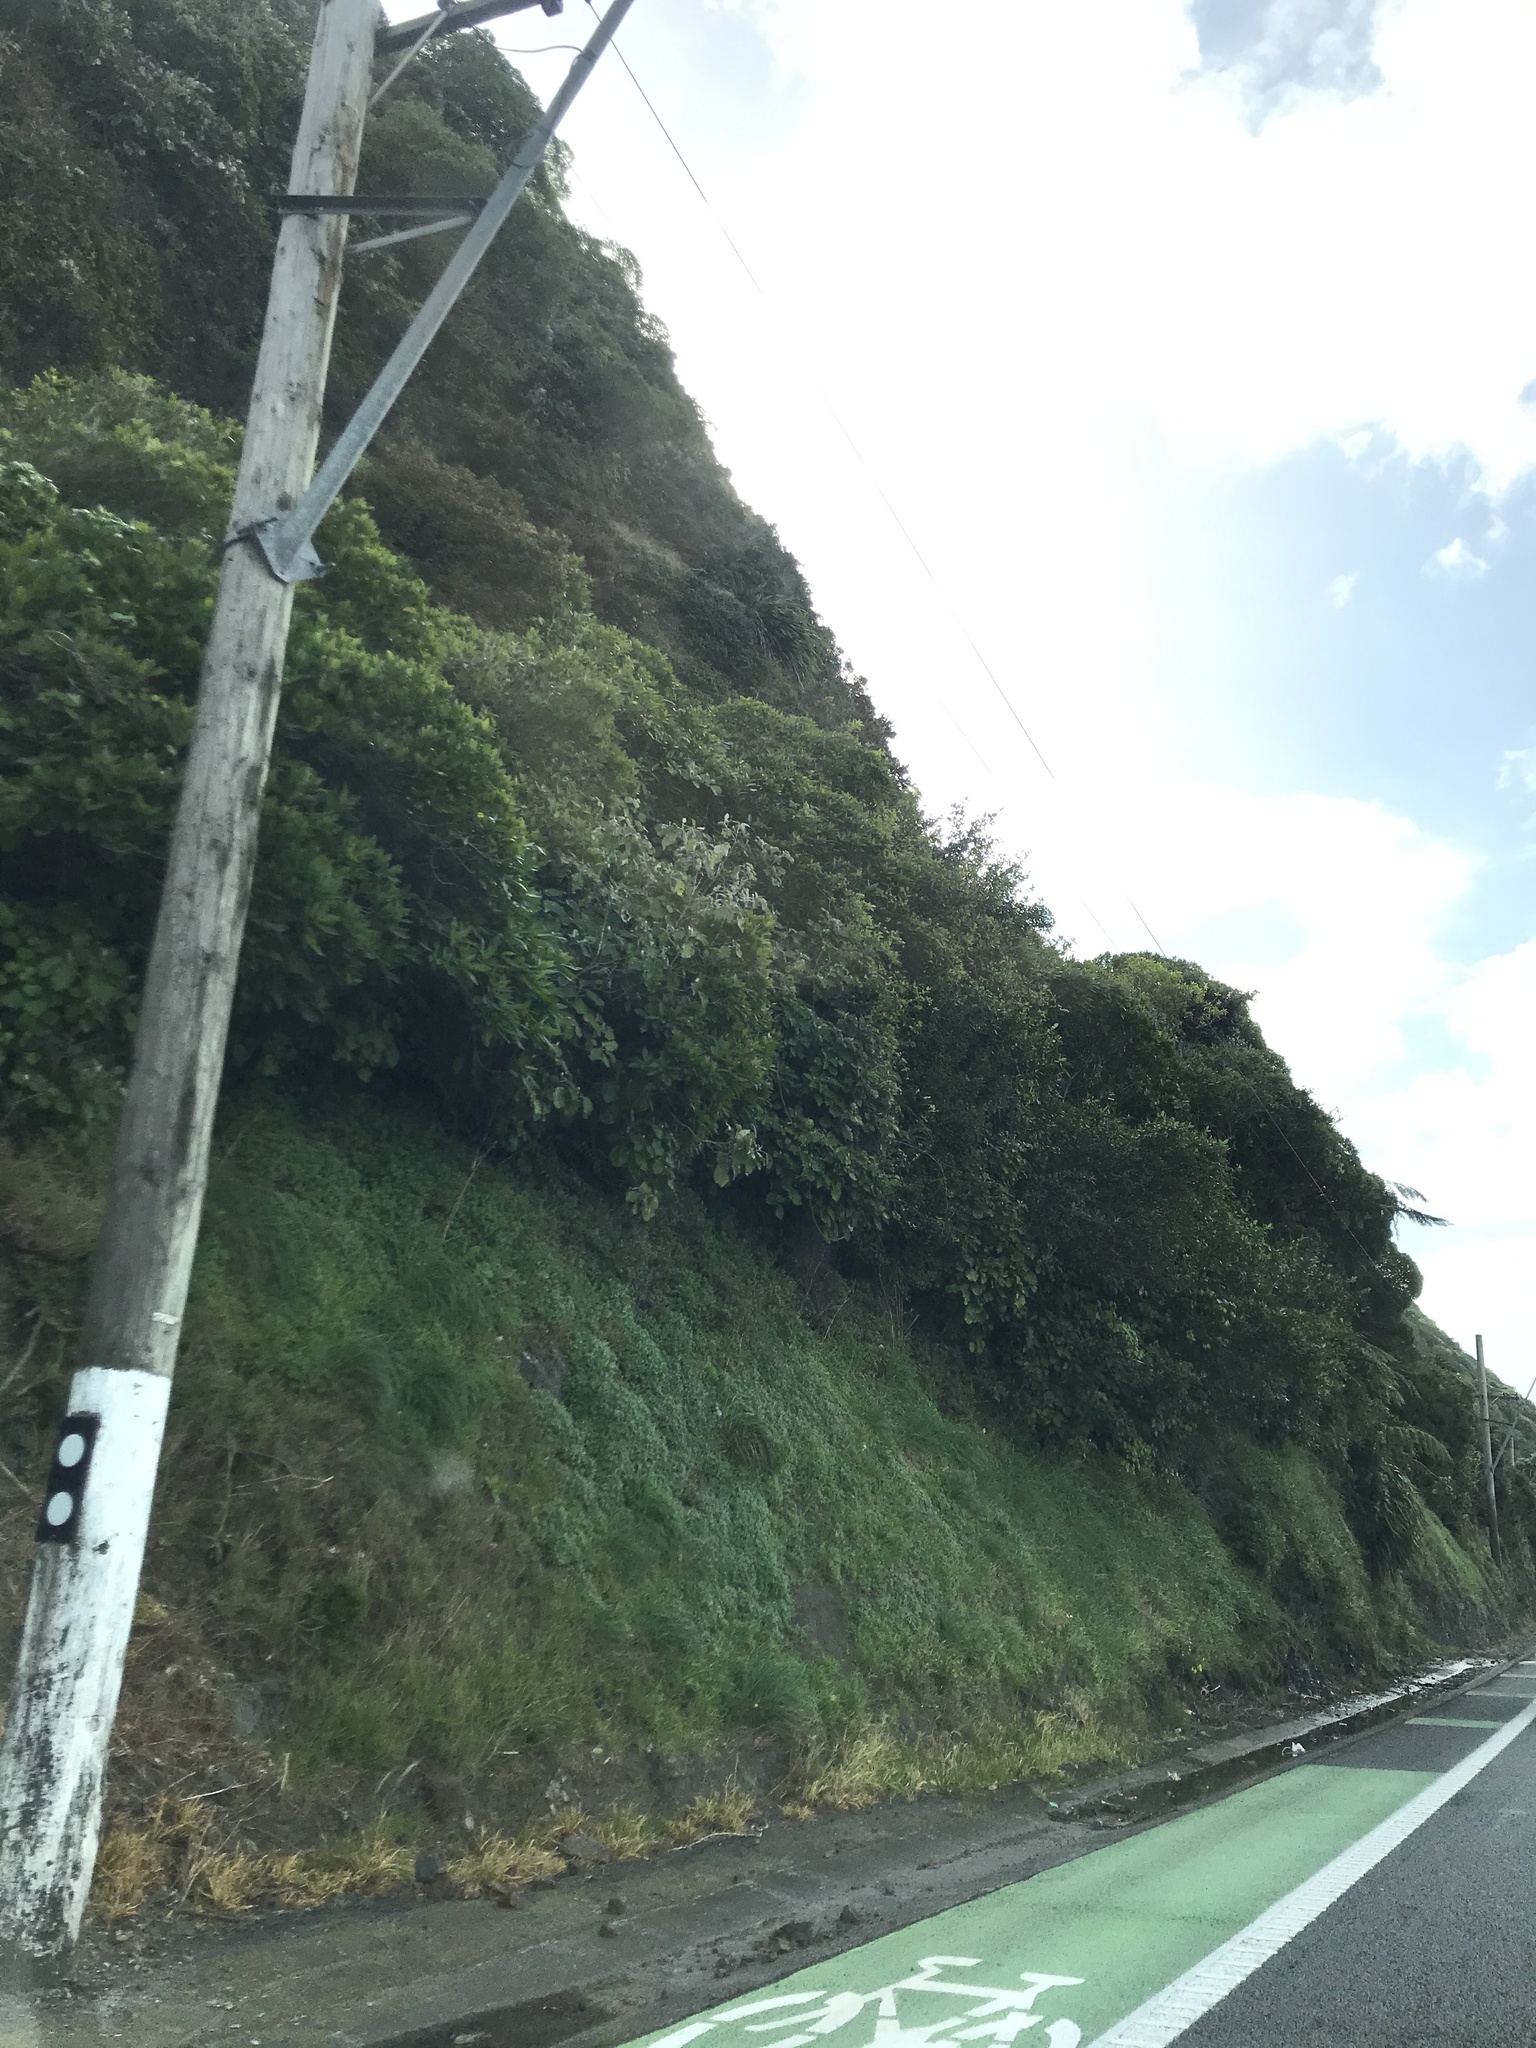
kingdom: Plantae
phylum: Tracheophyta
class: Magnoliopsida
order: Asterales
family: Asteraceae
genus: Brachyglottis
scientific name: Brachyglottis repanda
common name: Hedge ragwort
